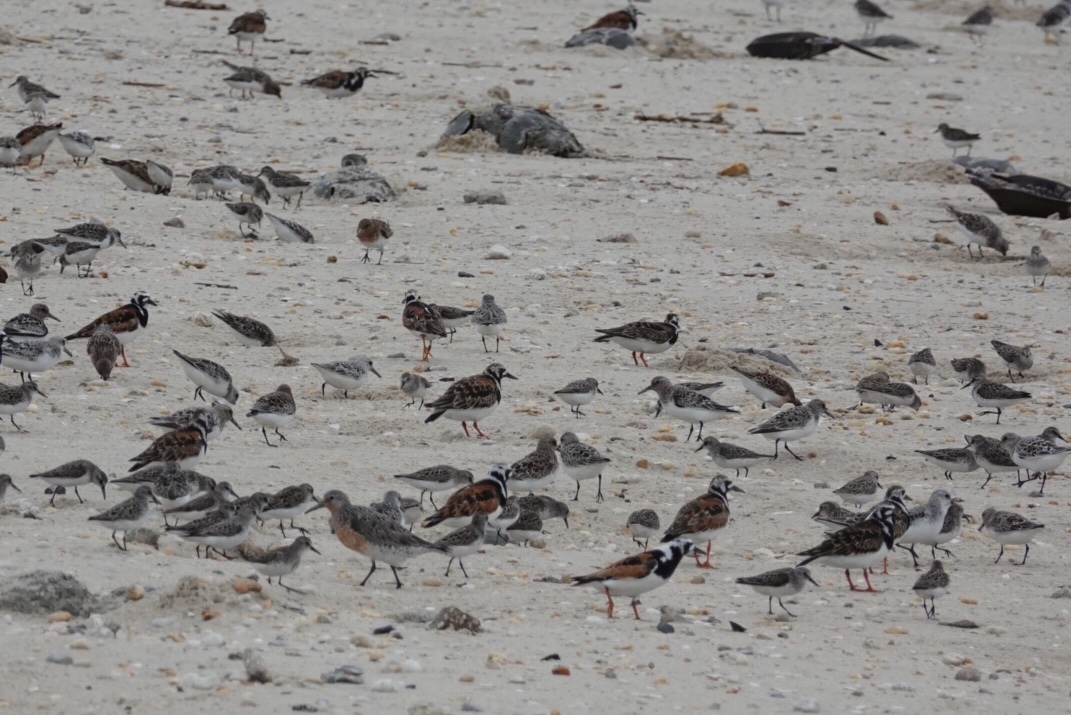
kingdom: Animalia
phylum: Chordata
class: Aves
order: Charadriiformes
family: Scolopacidae
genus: Arenaria
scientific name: Arenaria interpres
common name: Ruddy turnstone
